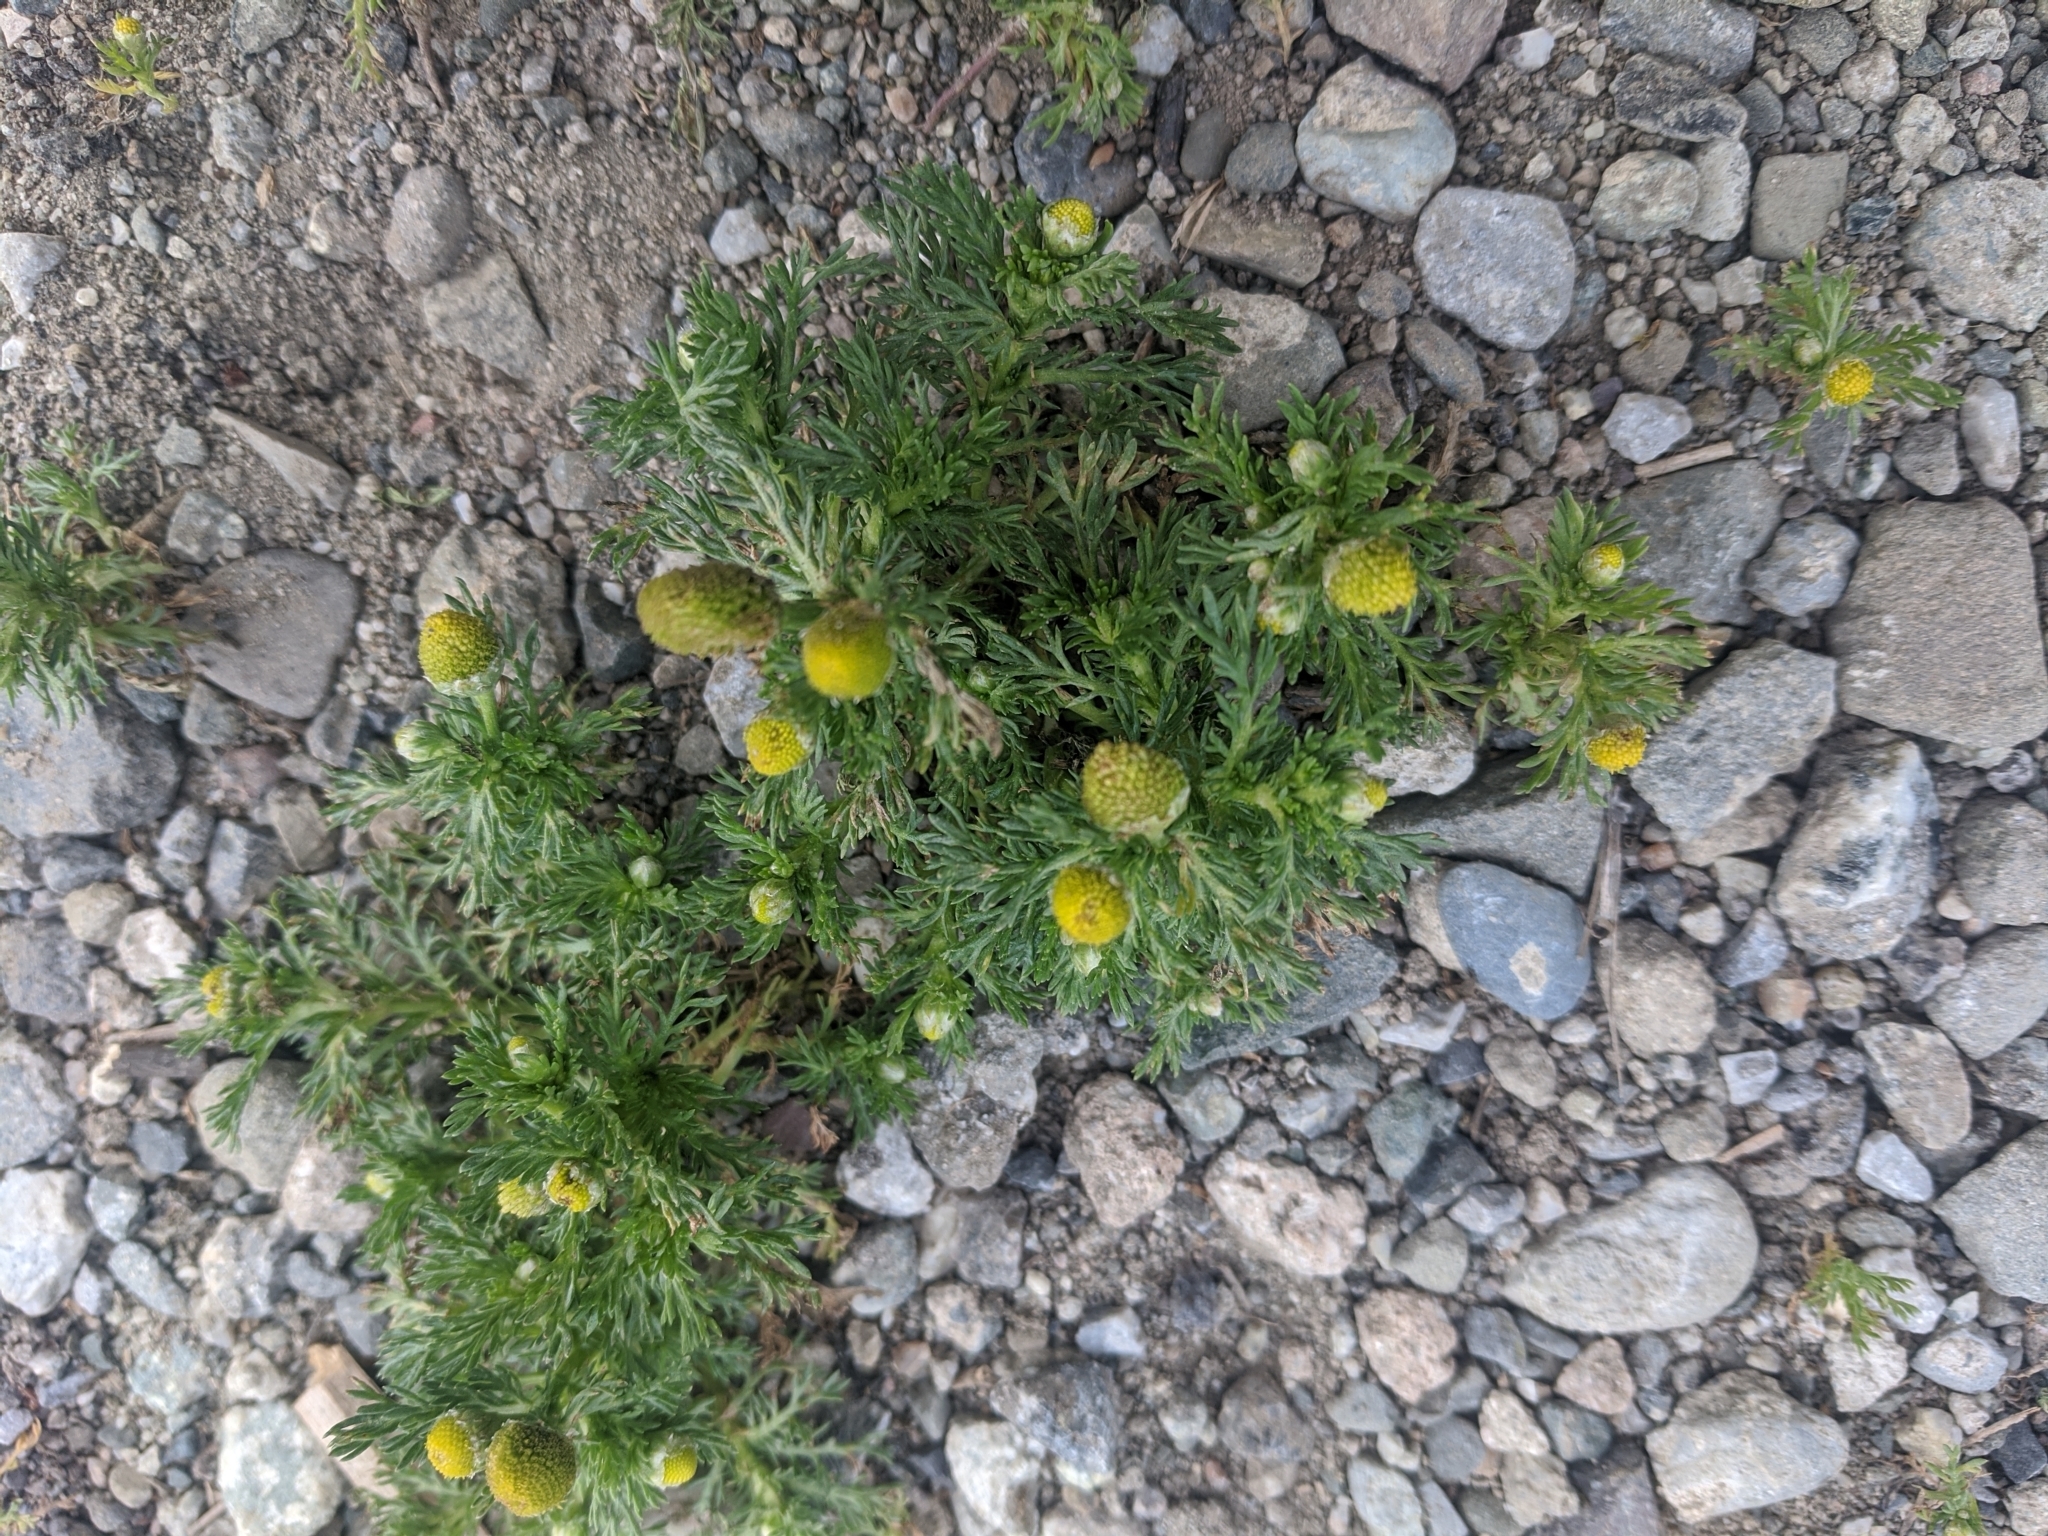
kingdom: Plantae
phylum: Tracheophyta
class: Magnoliopsida
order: Asterales
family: Asteraceae
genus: Matricaria
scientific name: Matricaria discoidea
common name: Disc mayweed
